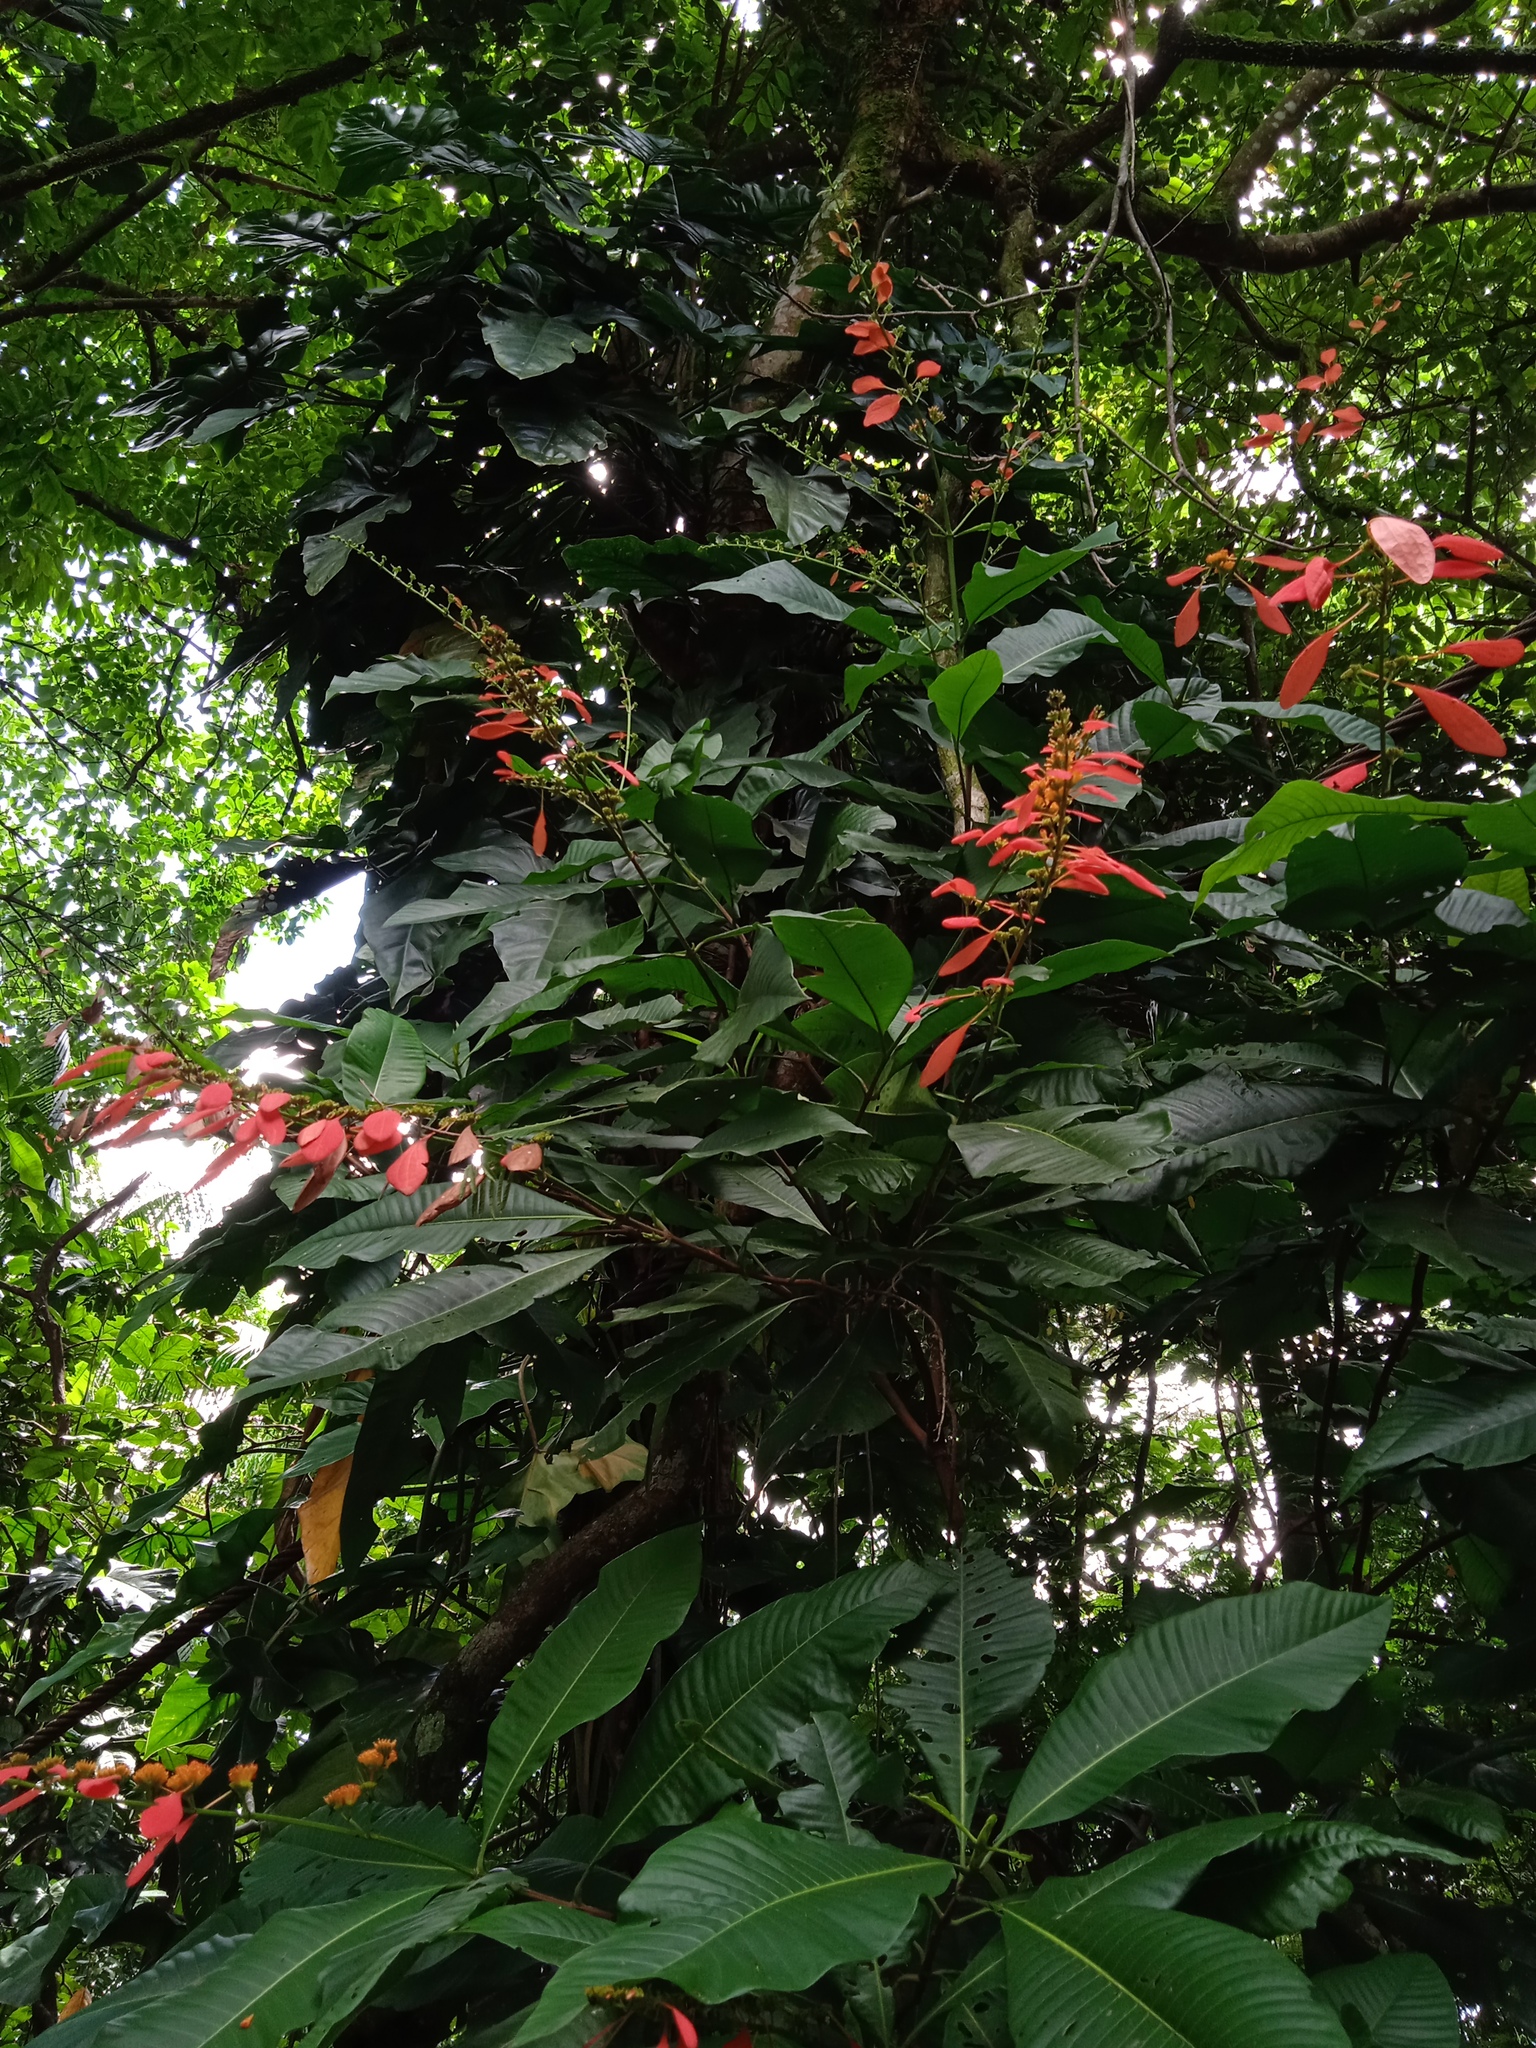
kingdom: Plantae
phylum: Tracheophyta
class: Magnoliopsida
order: Gentianales
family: Rubiaceae
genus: Warszewiczia
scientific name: Warszewiczia coccinea
